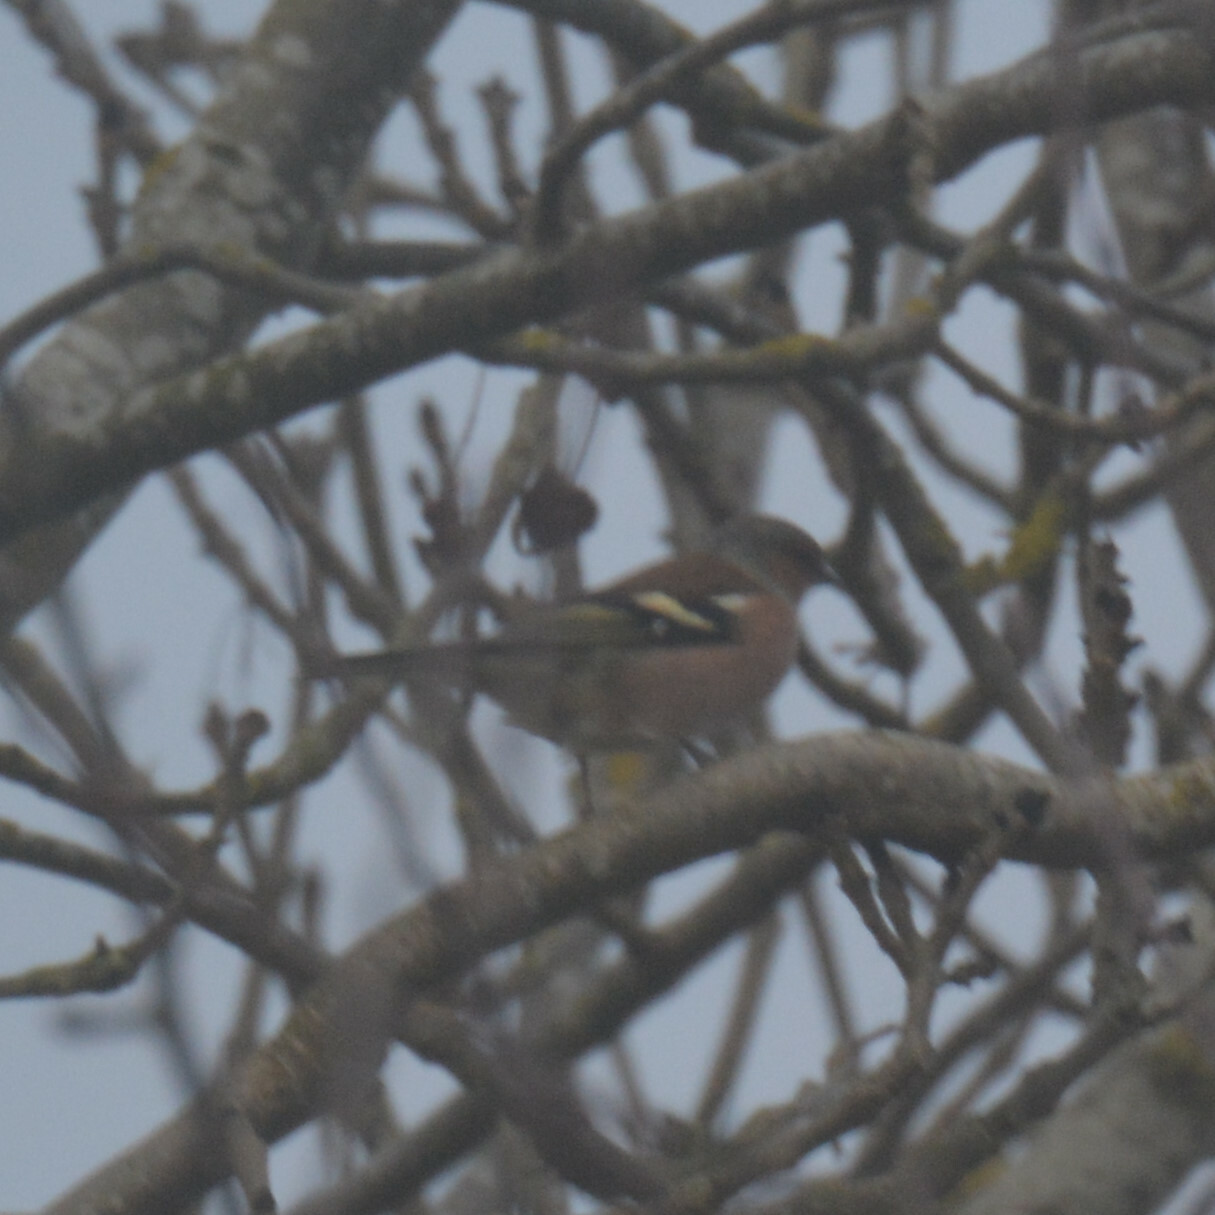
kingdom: Animalia
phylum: Chordata
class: Aves
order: Passeriformes
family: Fringillidae
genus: Fringilla
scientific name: Fringilla coelebs
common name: Common chaffinch
